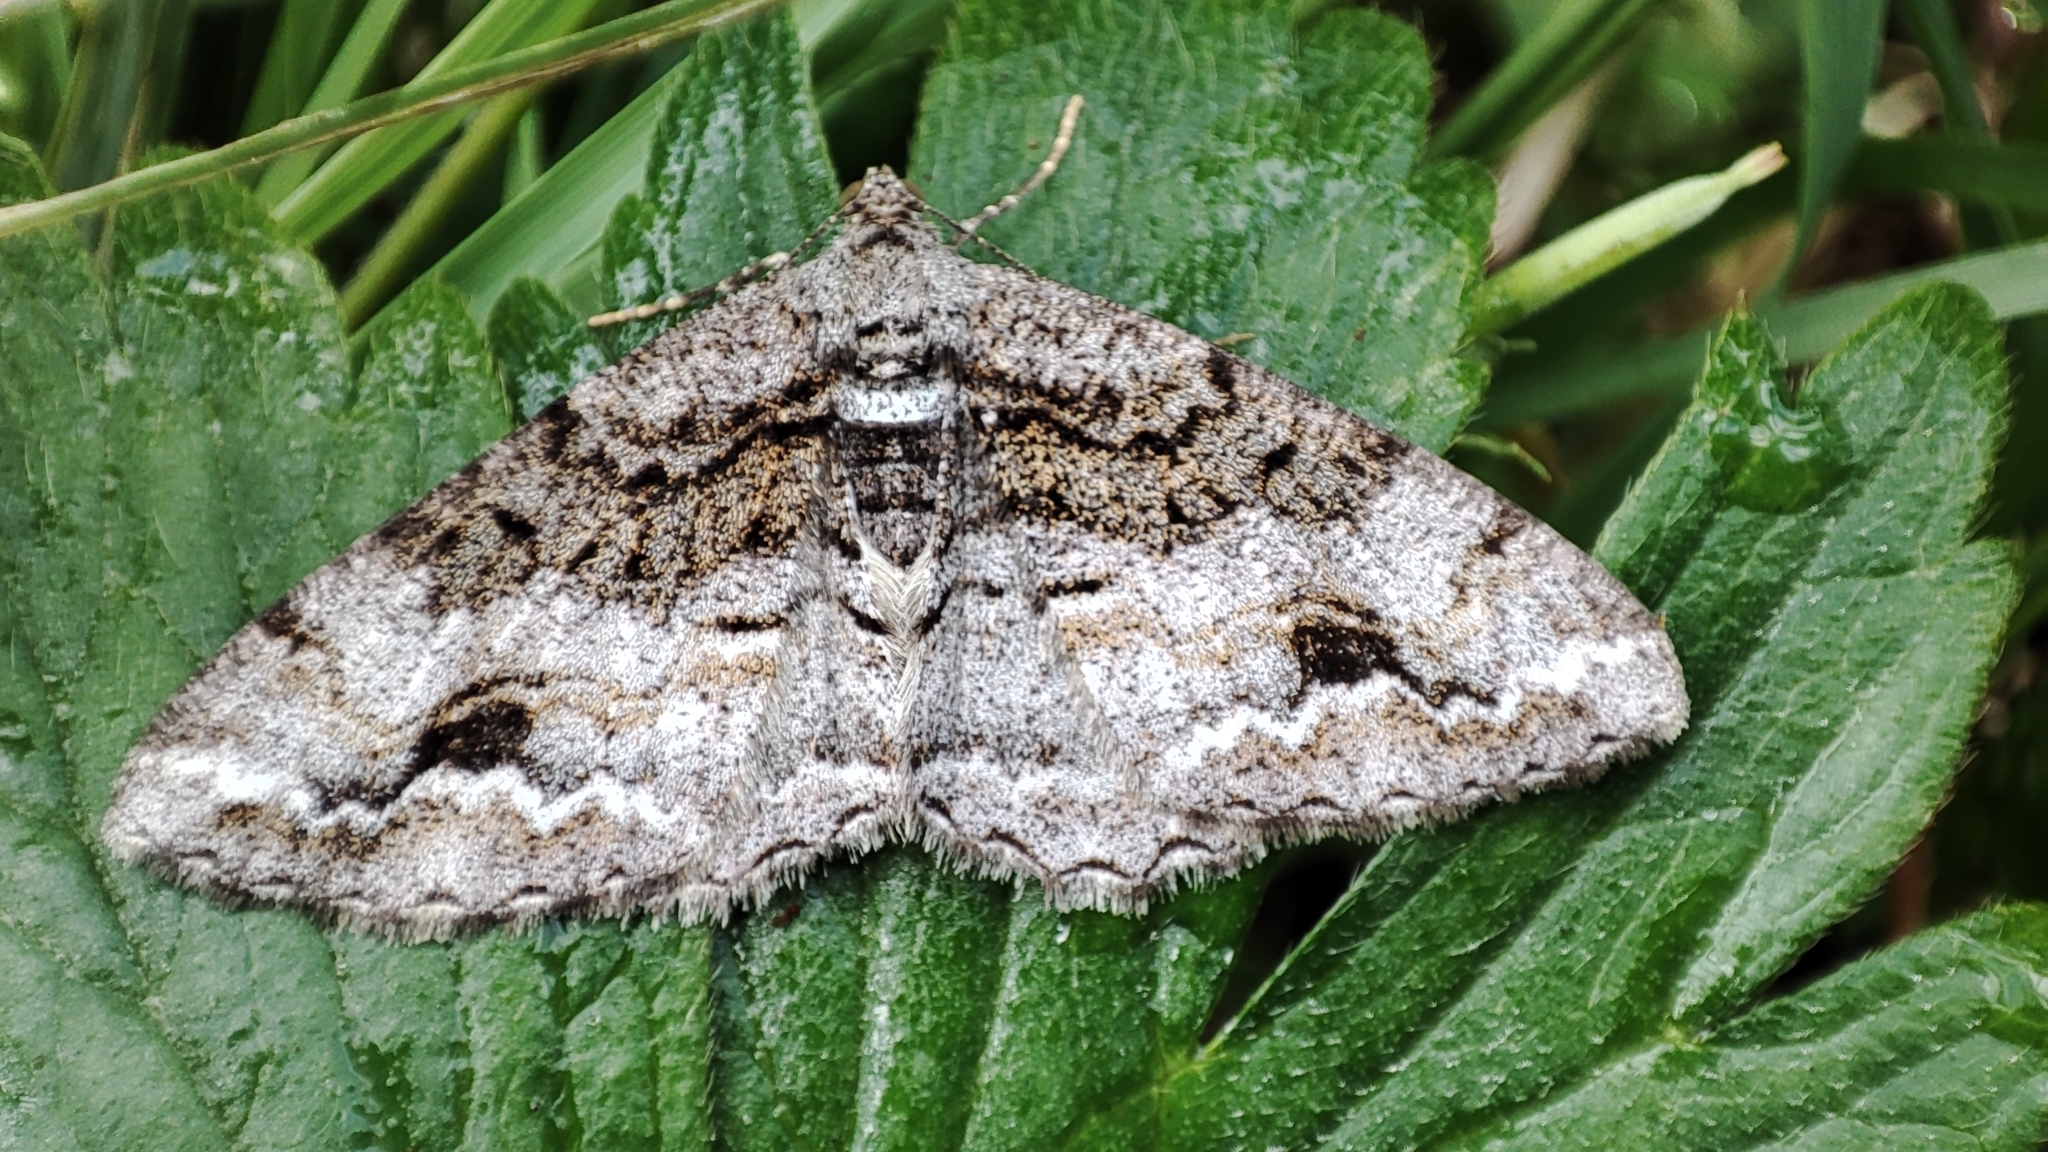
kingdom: Animalia
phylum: Arthropoda
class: Insecta
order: Lepidoptera
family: Geometridae
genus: Alcis
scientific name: Alcis deversata
